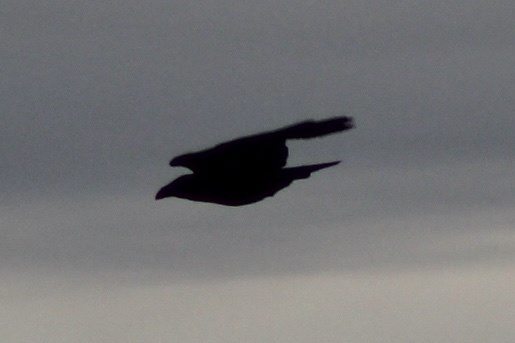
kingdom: Animalia
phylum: Chordata
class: Aves
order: Passeriformes
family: Corvidae
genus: Corvus
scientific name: Corvus corax
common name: Common raven
